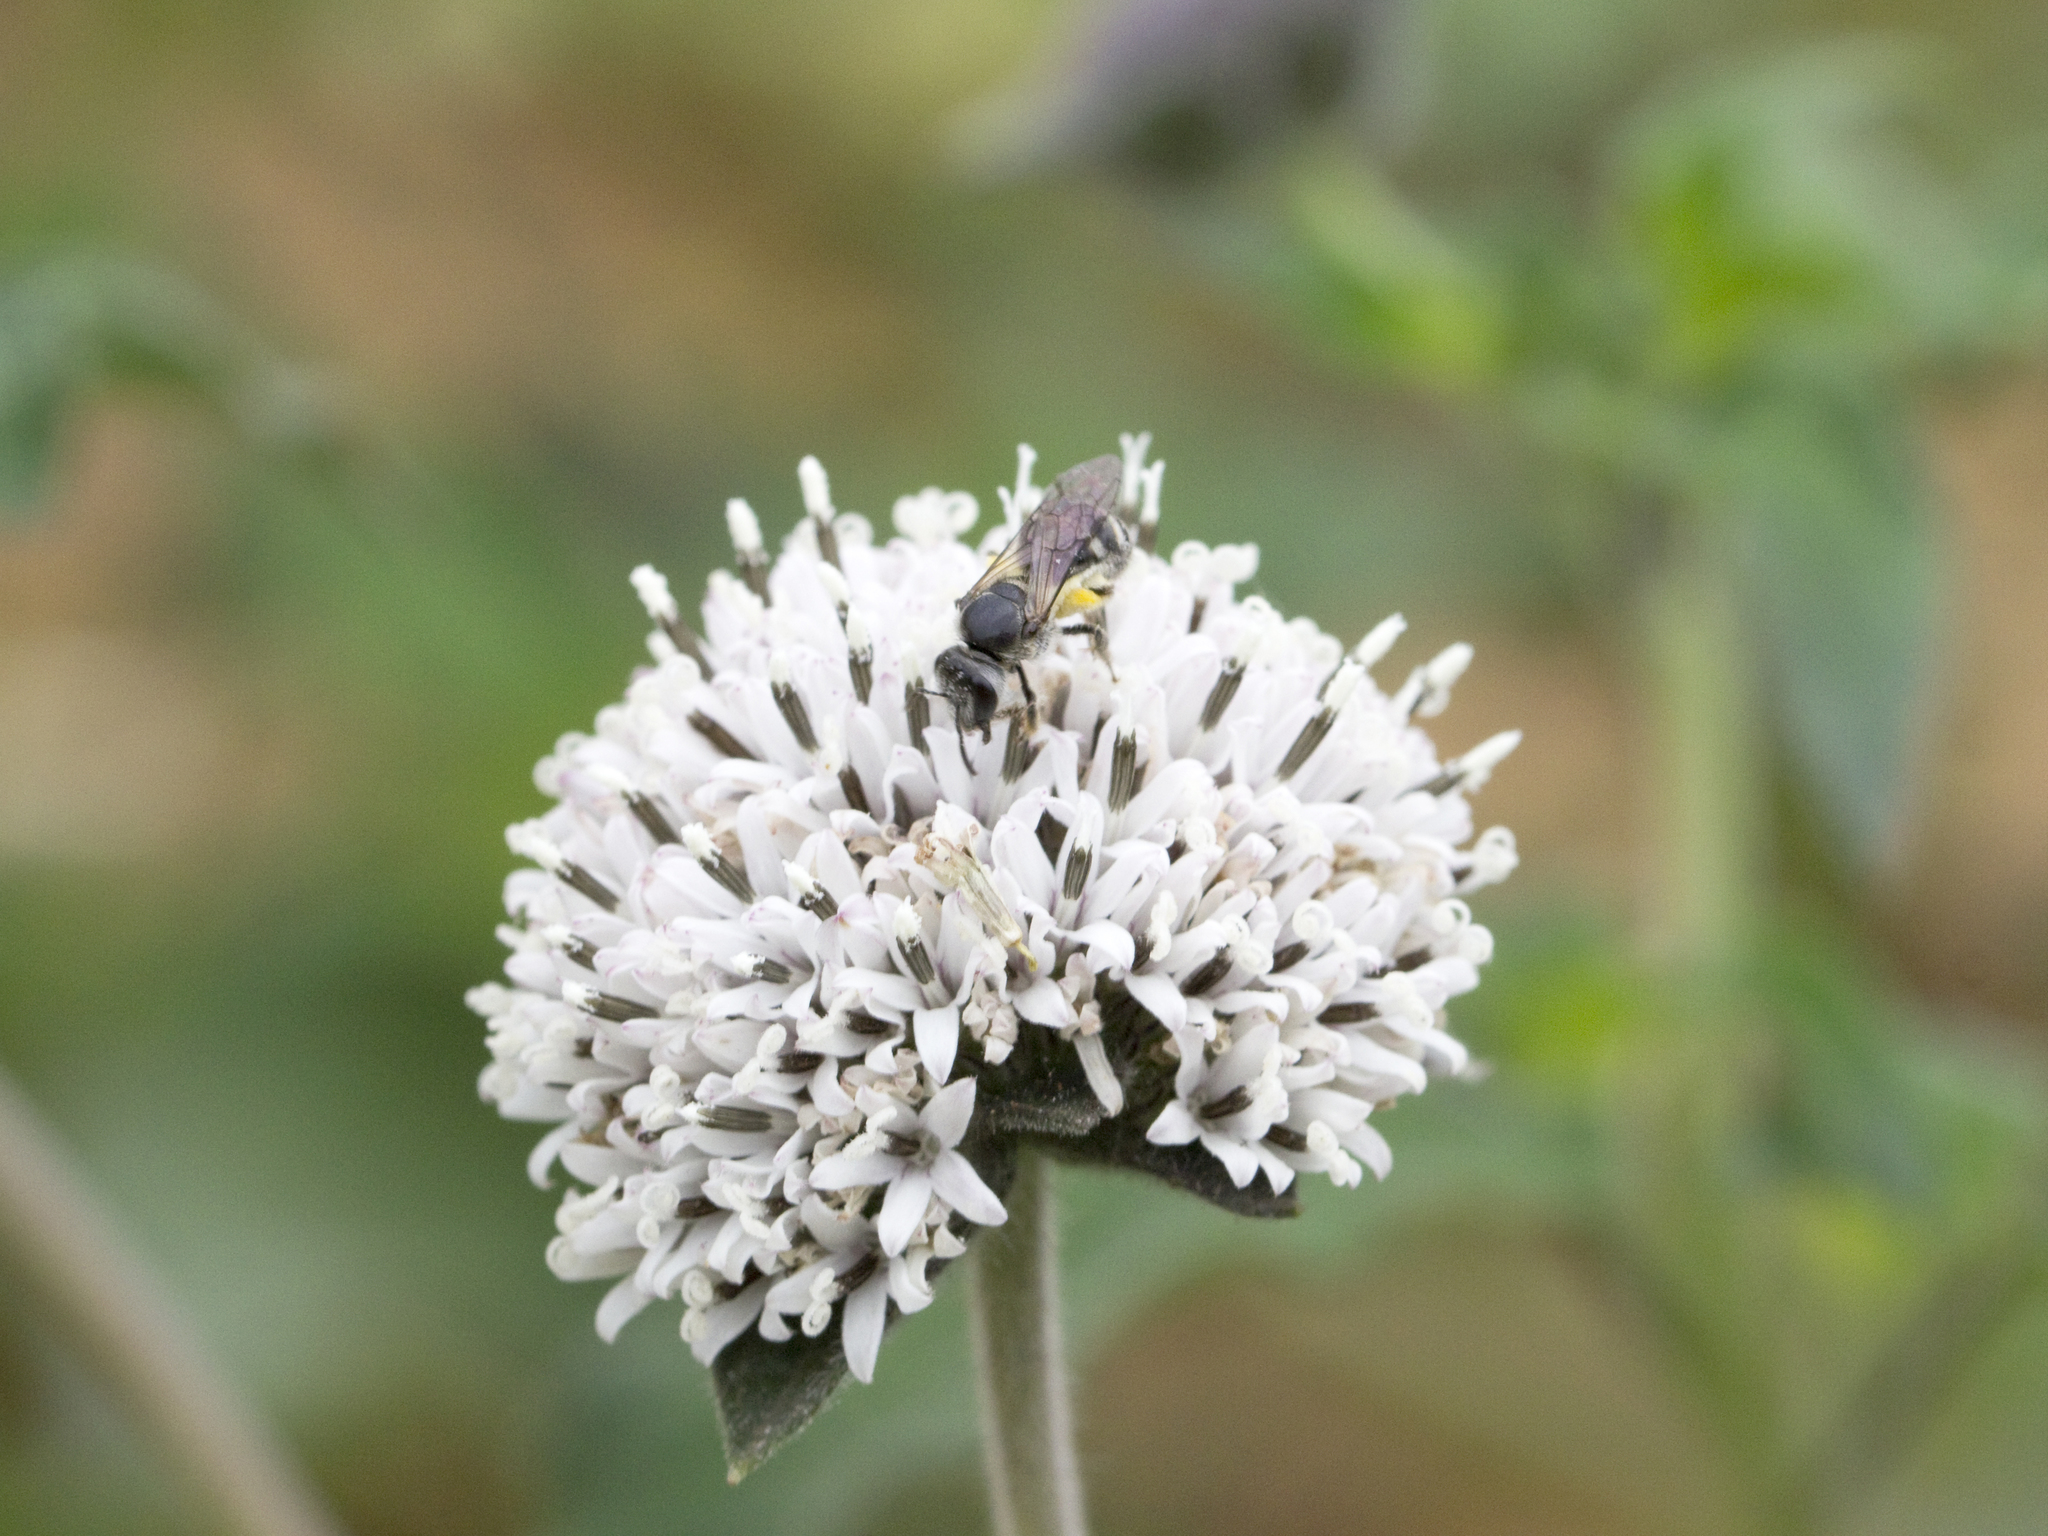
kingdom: Animalia
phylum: Arthropoda
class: Insecta
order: Hymenoptera
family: Halictidae
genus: Lasioglossum
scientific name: Lasioglossum albescens
